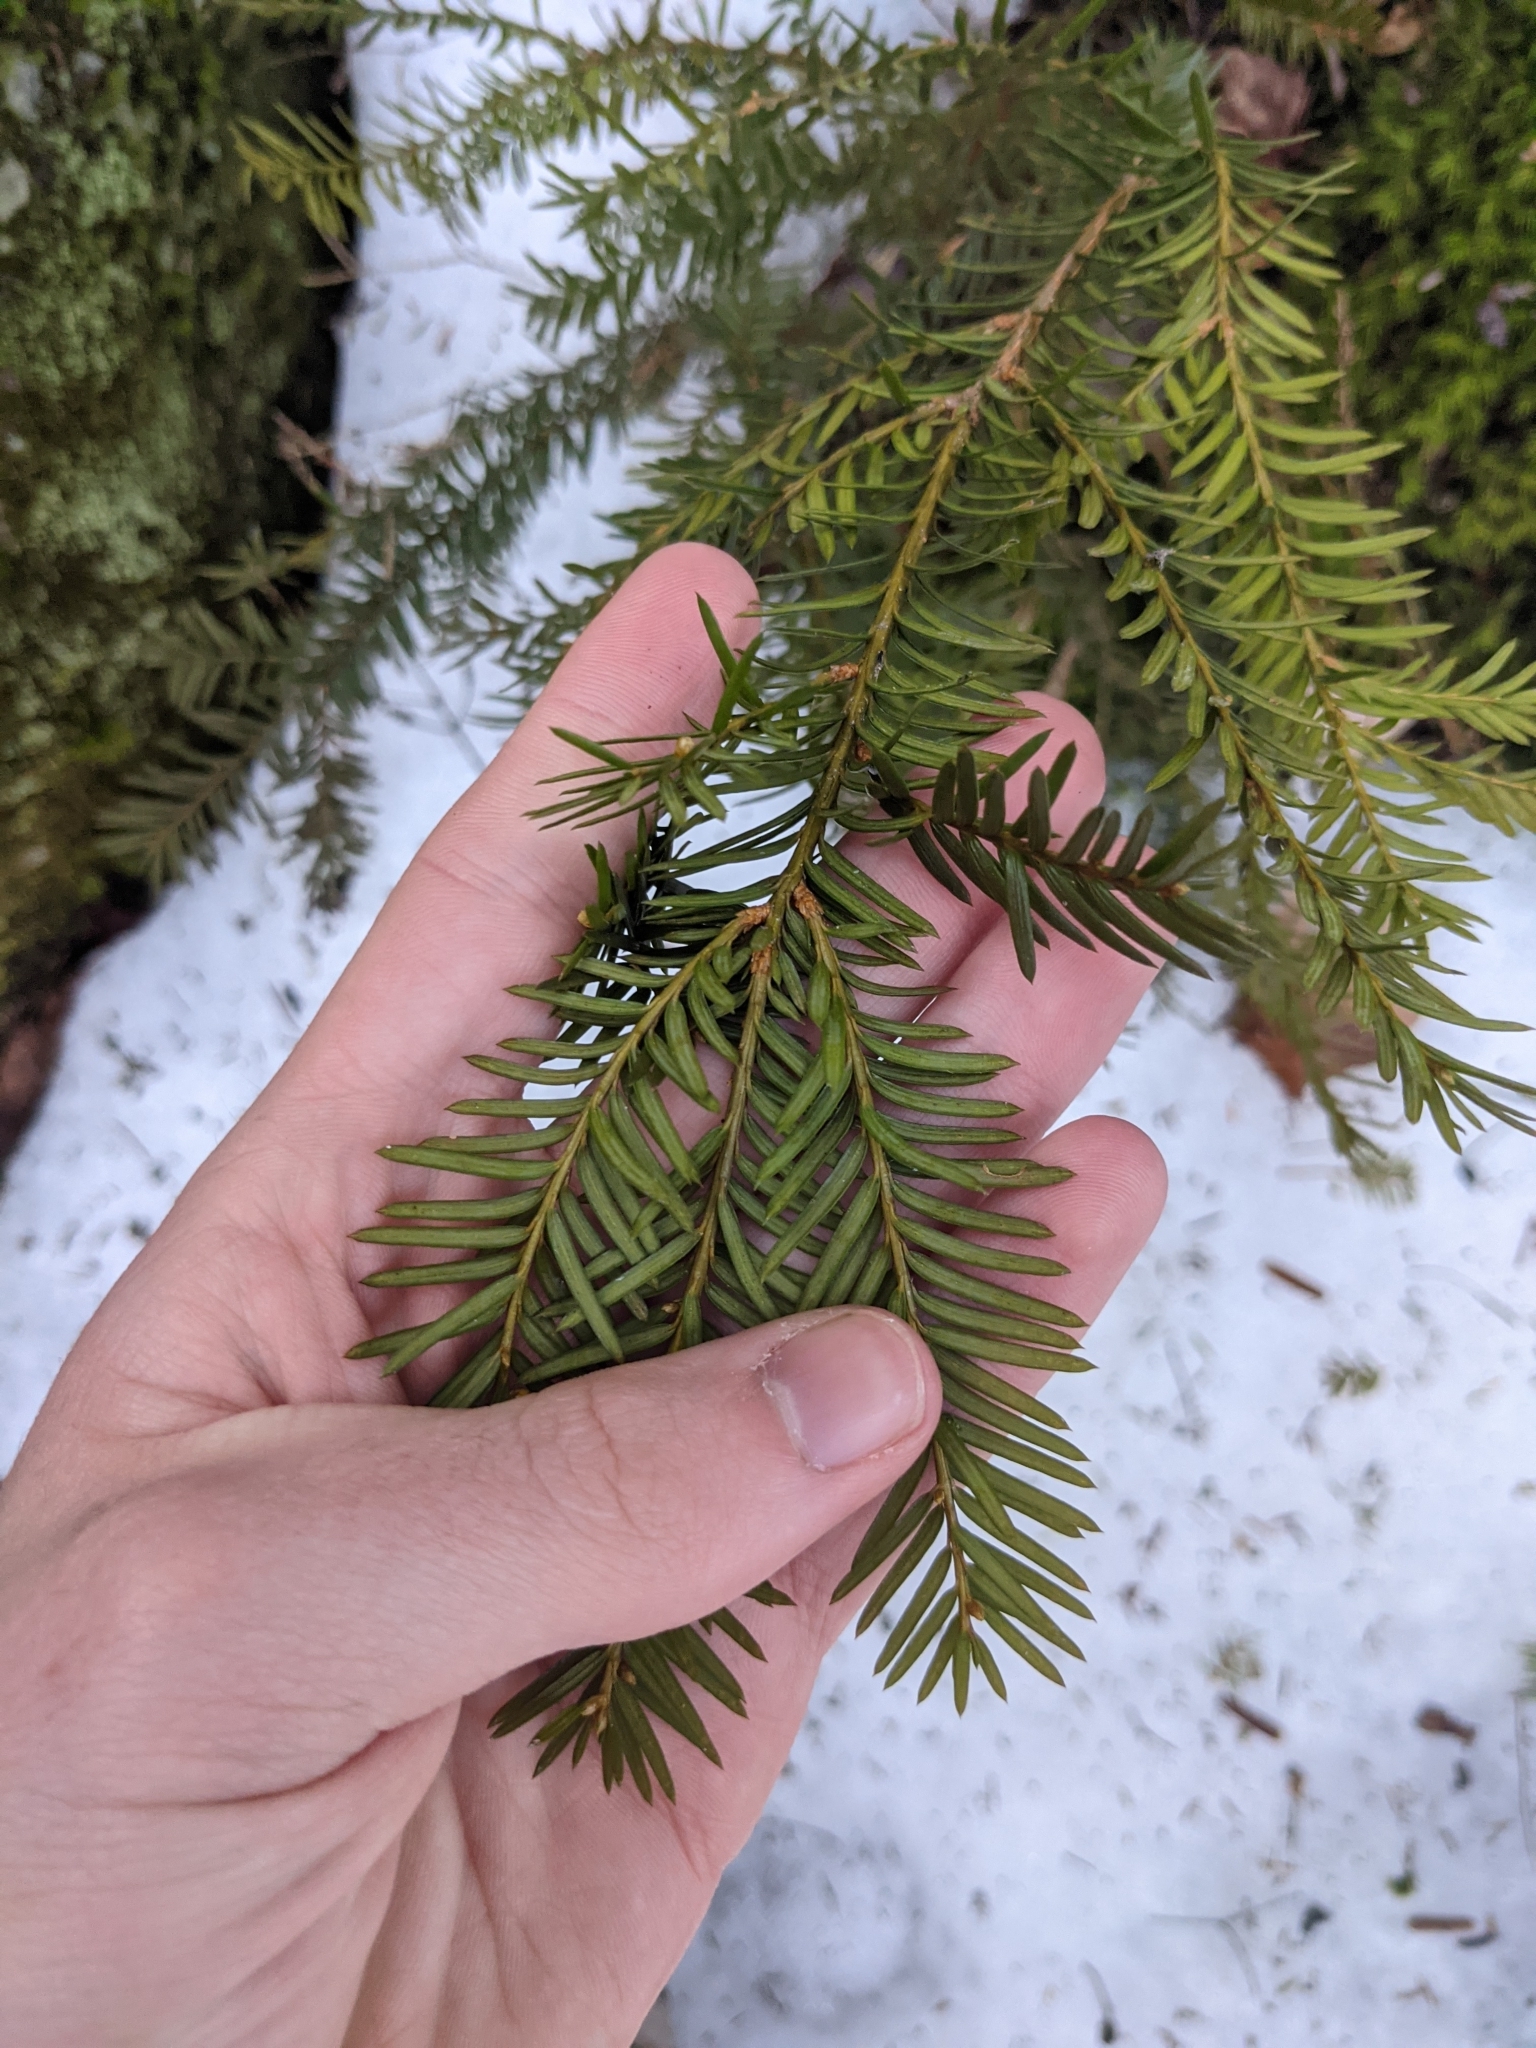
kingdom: Plantae
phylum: Tracheophyta
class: Pinopsida
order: Pinales
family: Taxaceae
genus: Taxus
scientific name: Taxus canadensis
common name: American yew
